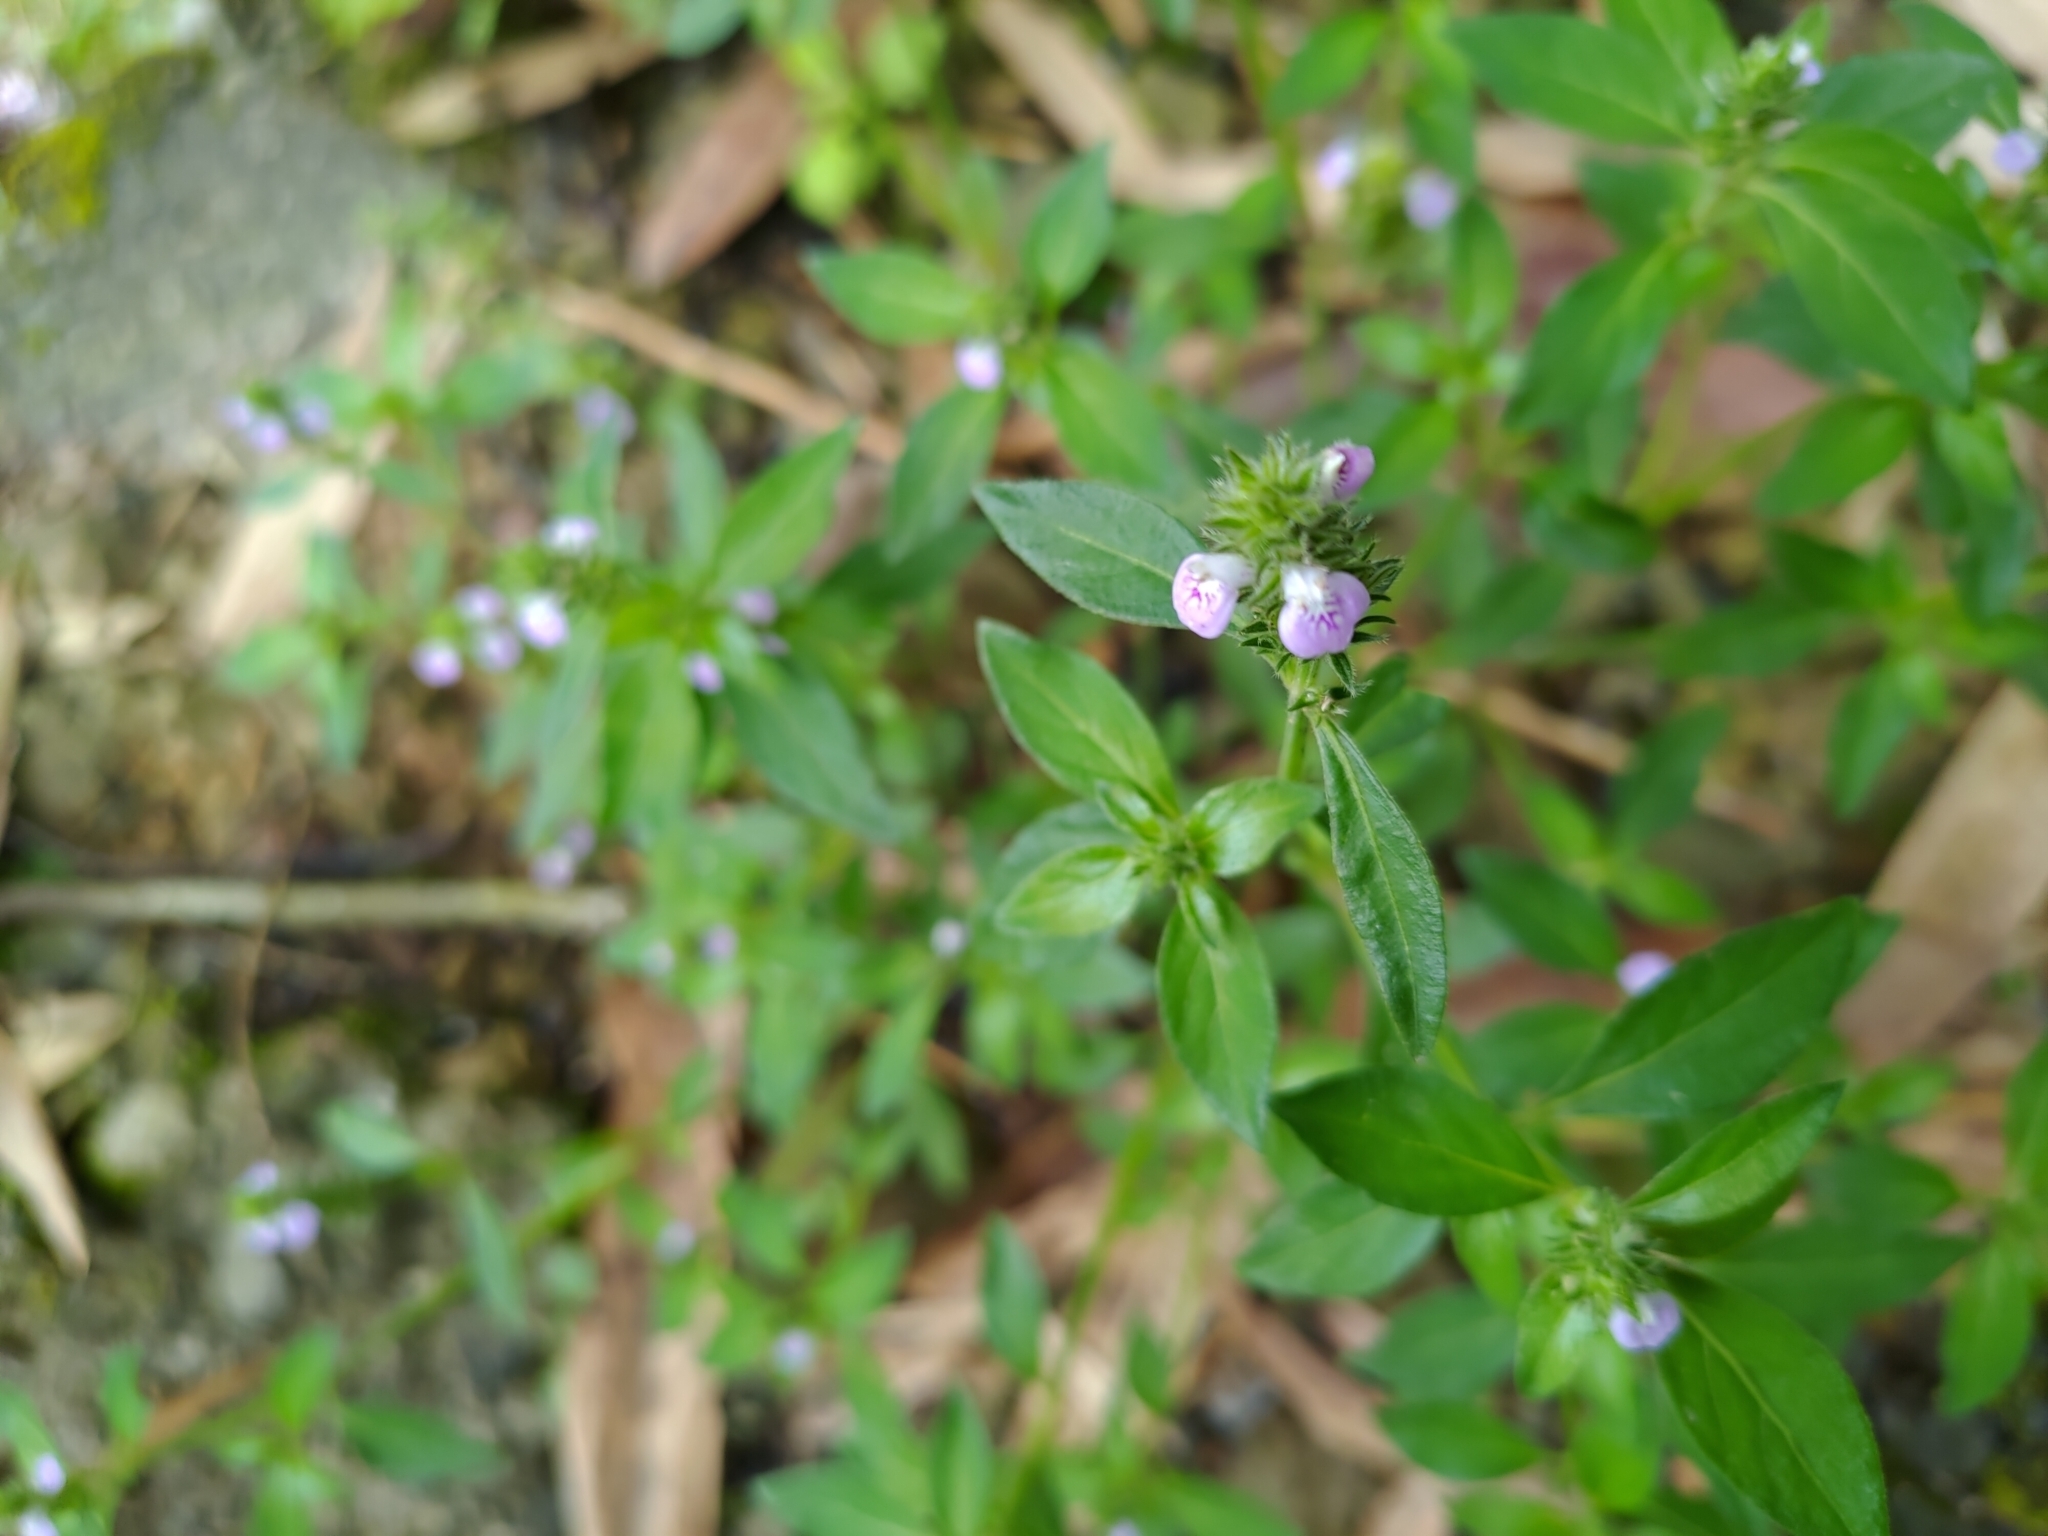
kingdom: Plantae
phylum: Tracheophyta
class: Magnoliopsida
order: Lamiales
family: Acanthaceae
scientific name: Acanthaceae
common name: Acanthaceae
